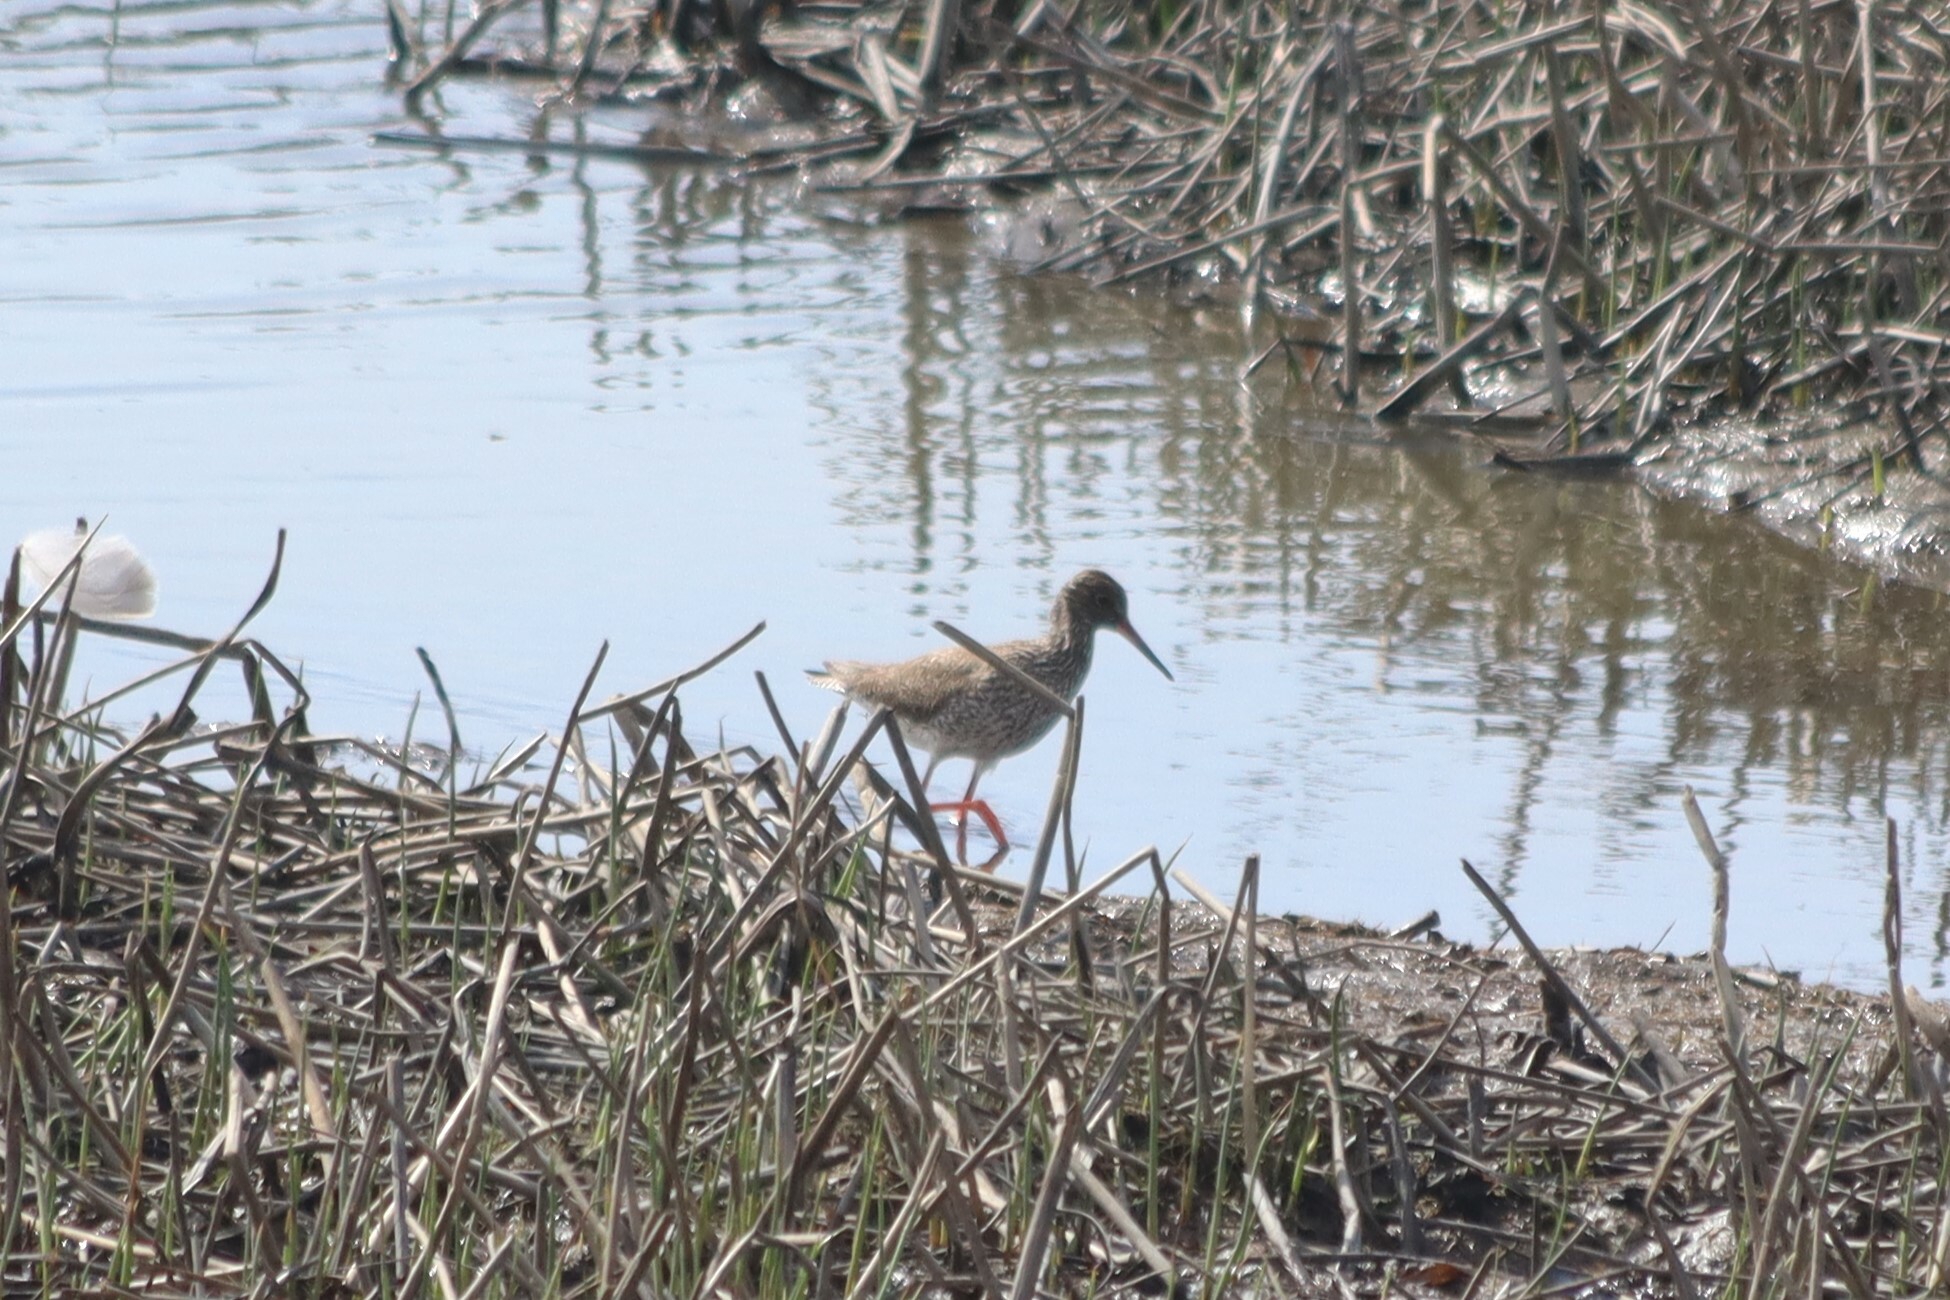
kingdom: Animalia
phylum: Chordata
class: Aves
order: Charadriiformes
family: Scolopacidae
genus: Tringa
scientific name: Tringa totanus
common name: Common redshank
